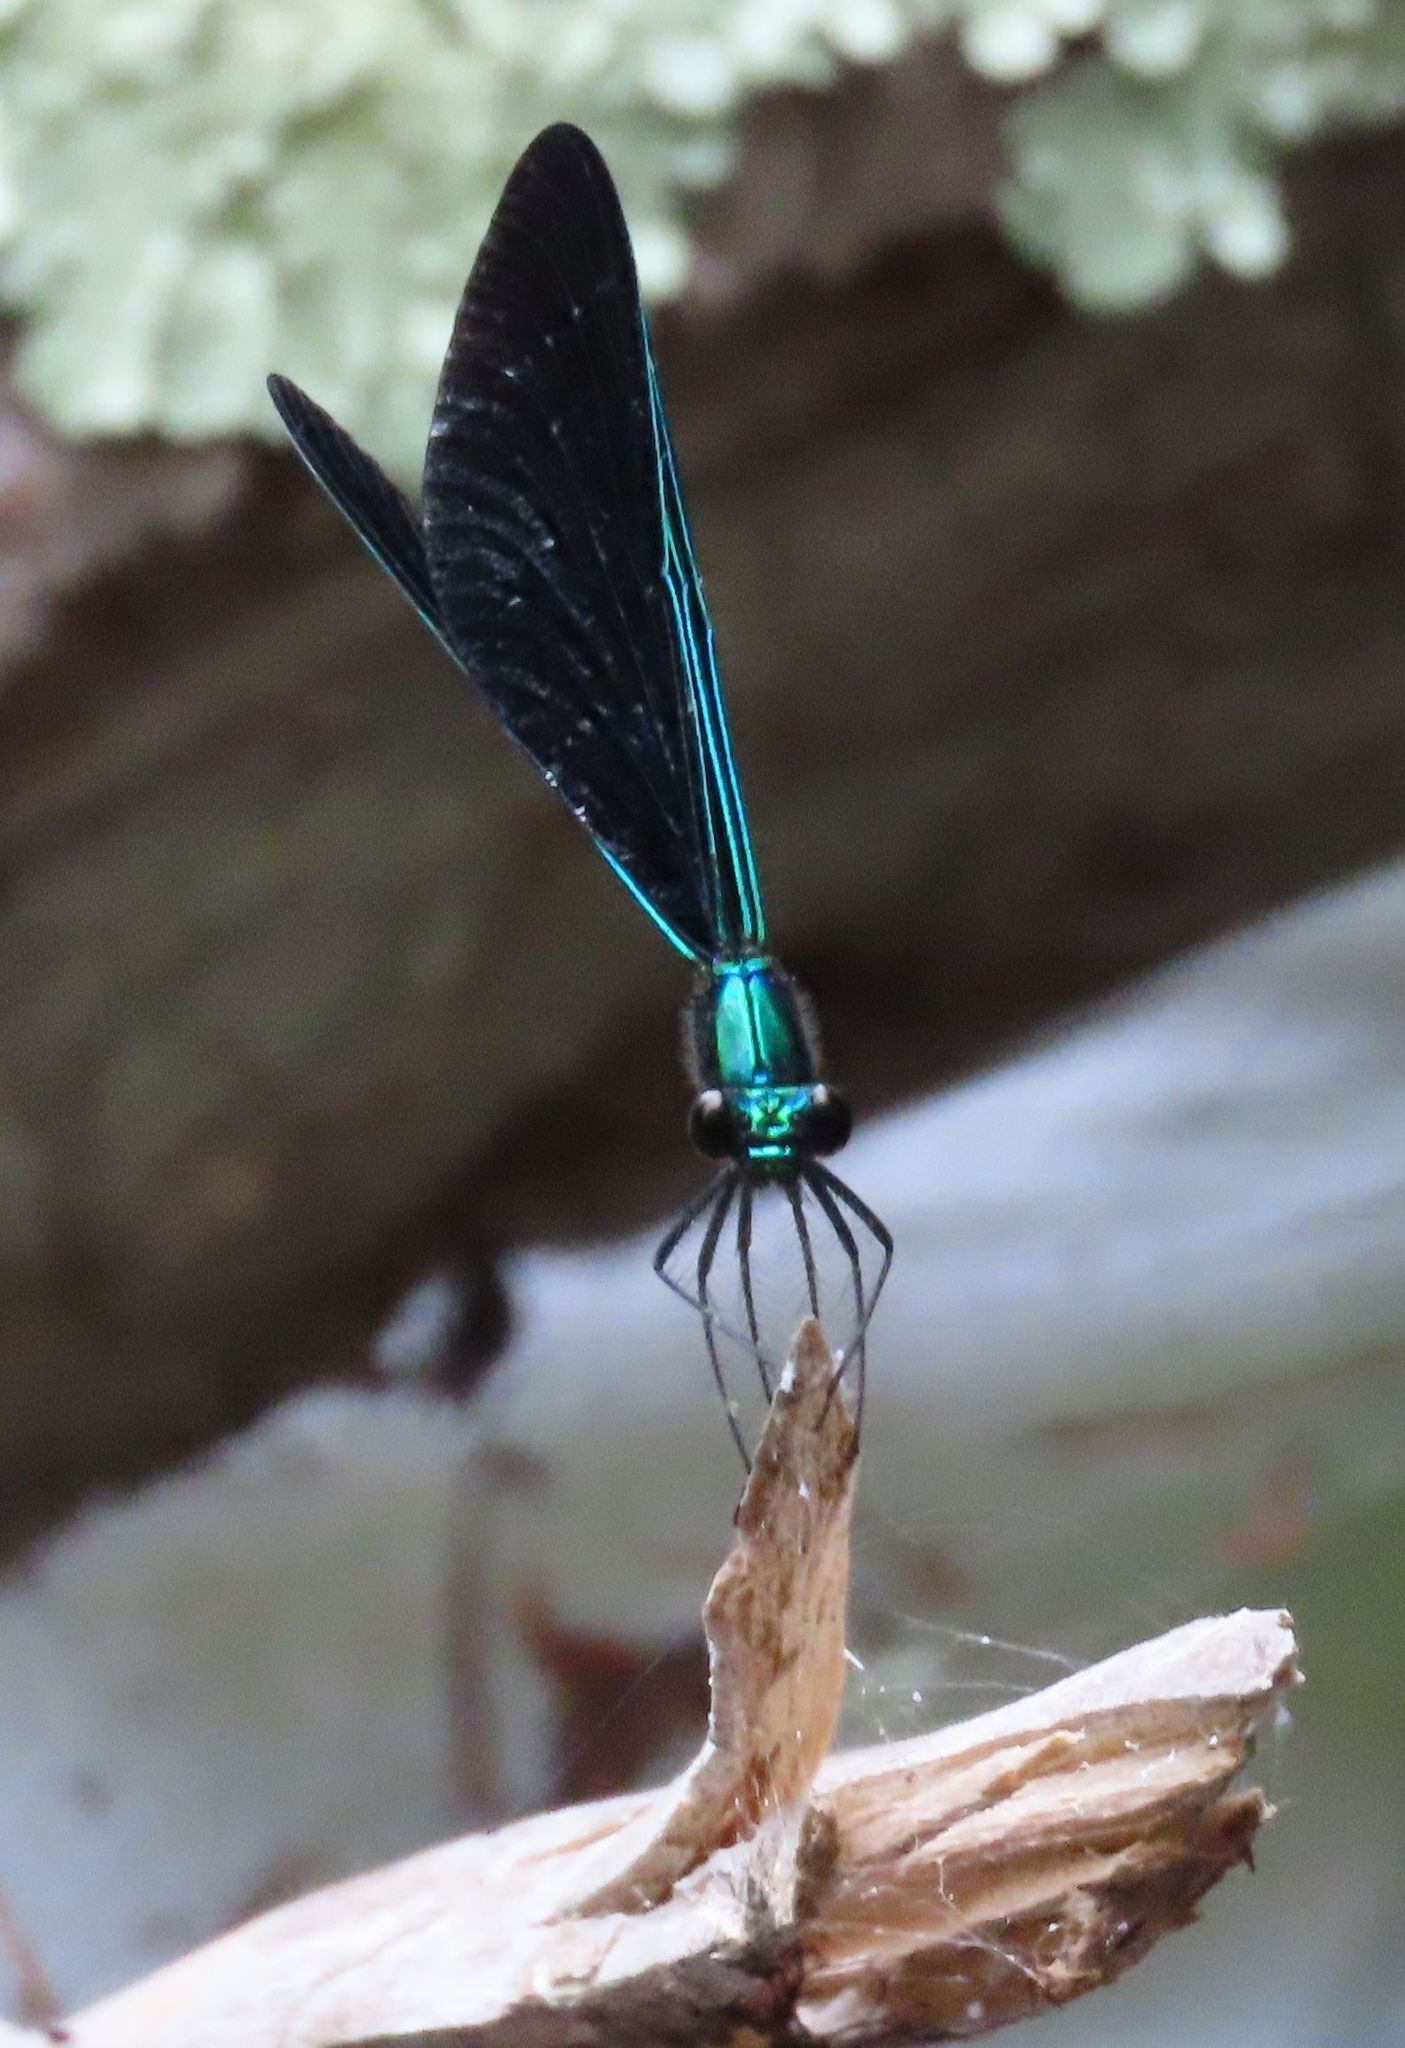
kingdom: Animalia
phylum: Arthropoda
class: Insecta
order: Odonata
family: Calopterygidae
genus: Calopteryx
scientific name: Calopteryx maculata
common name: Ebony jewelwing
